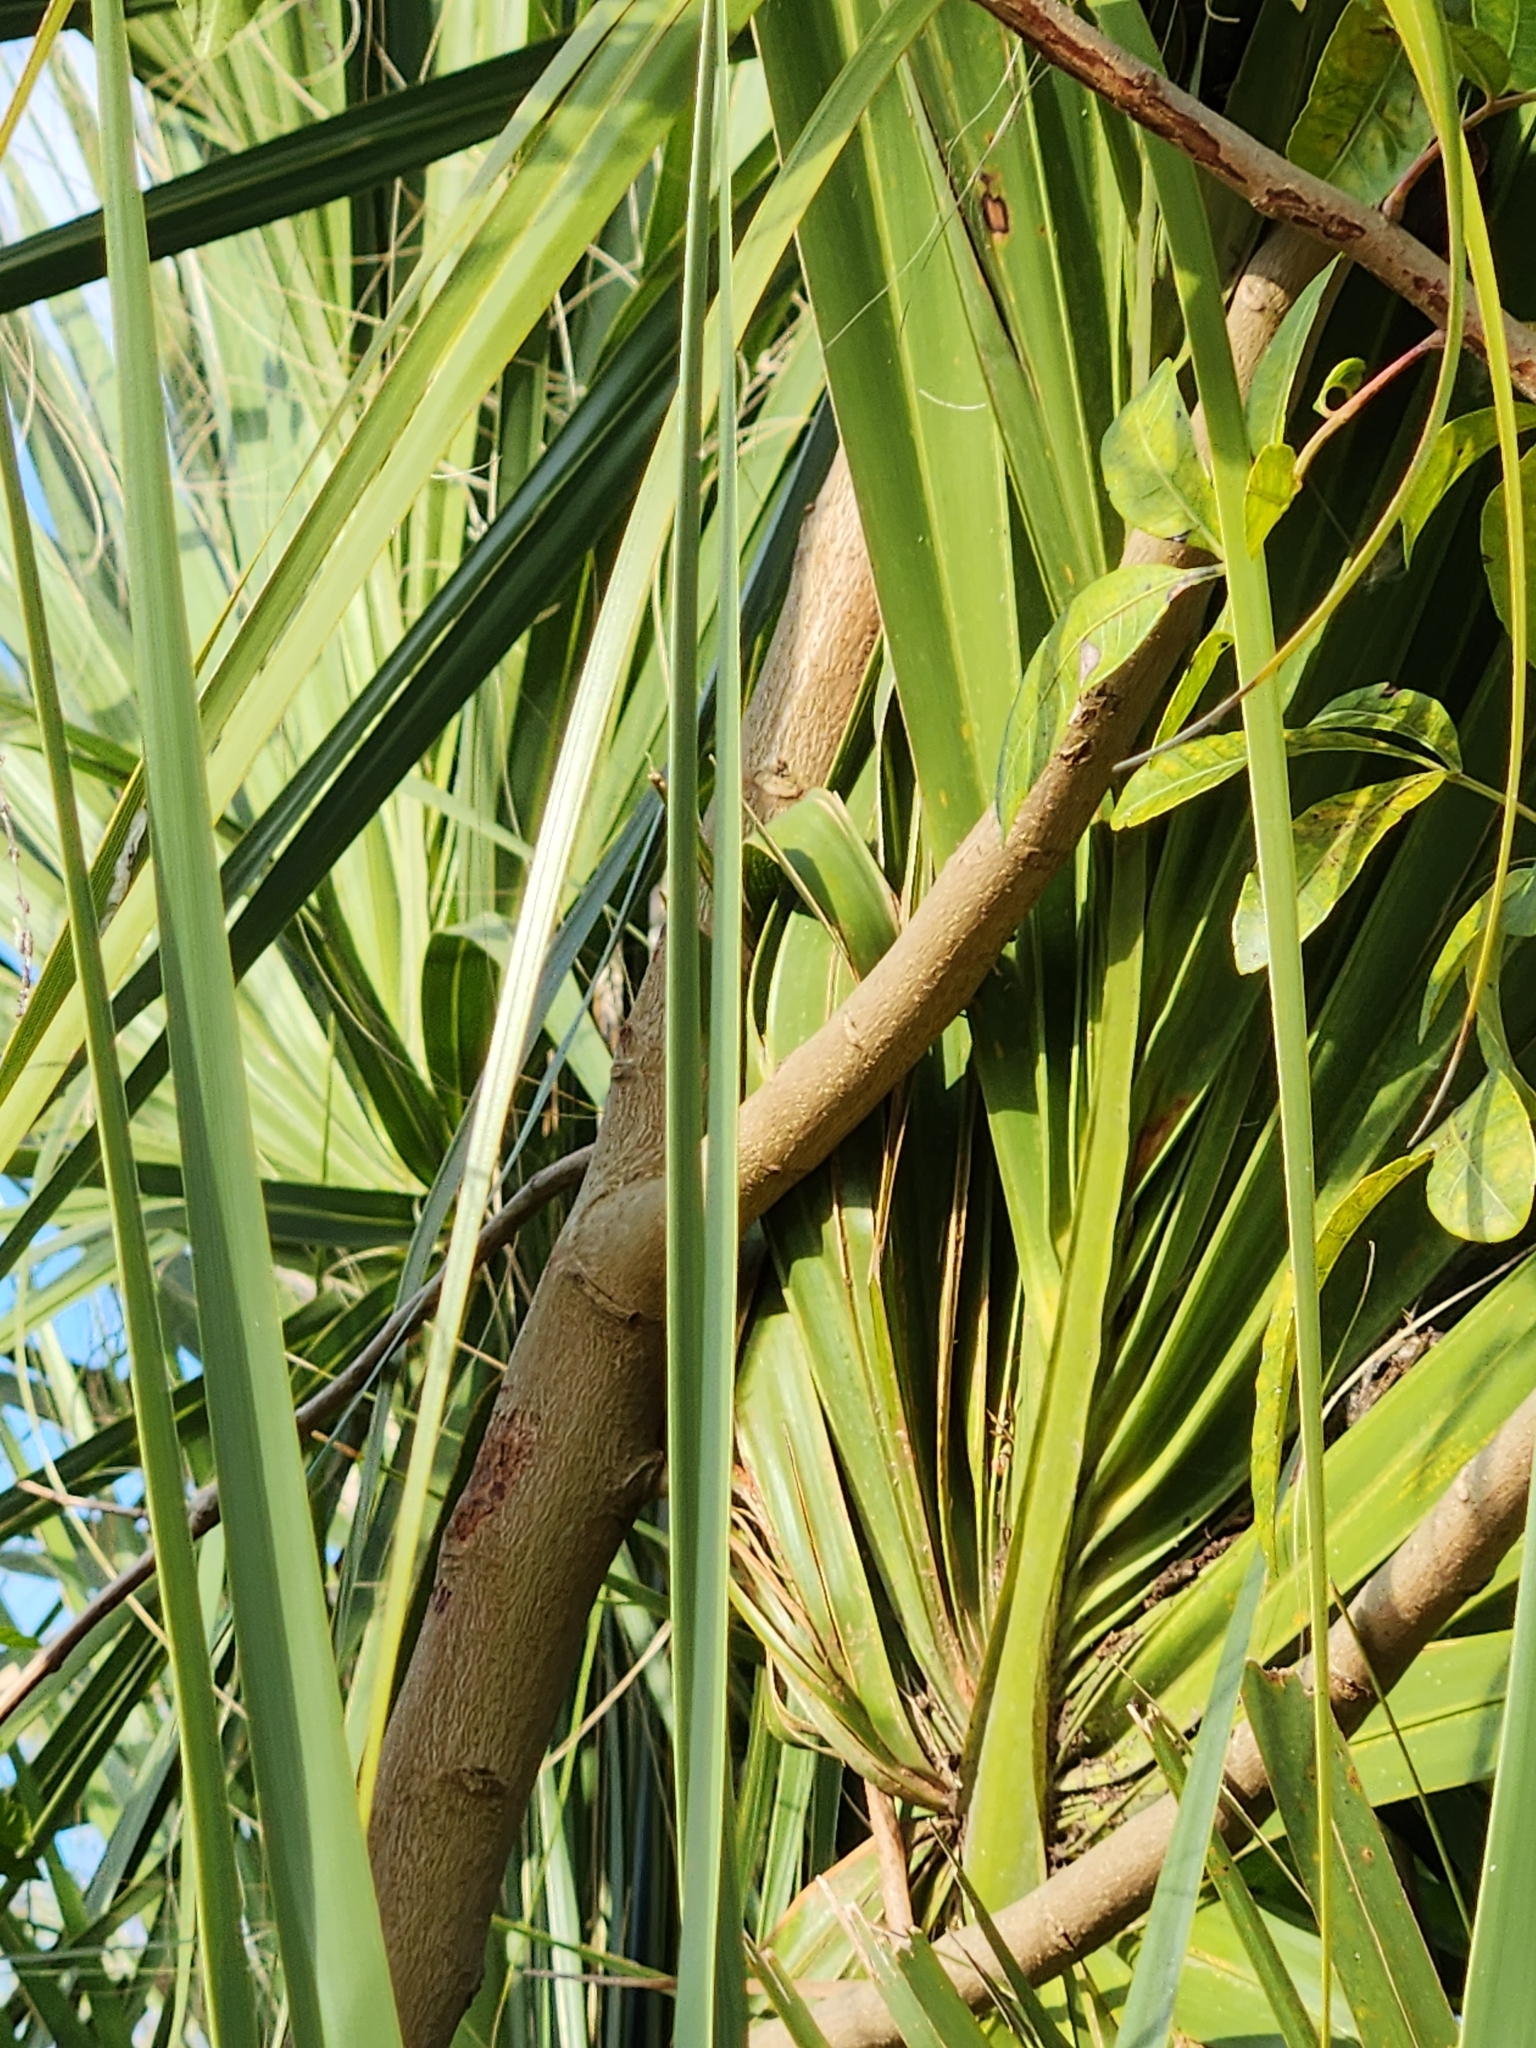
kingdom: Plantae
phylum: Tracheophyta
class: Magnoliopsida
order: Sapindales
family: Anacardiaceae
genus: Schinus
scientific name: Schinus terebinthifolia
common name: Brazilian peppertree
